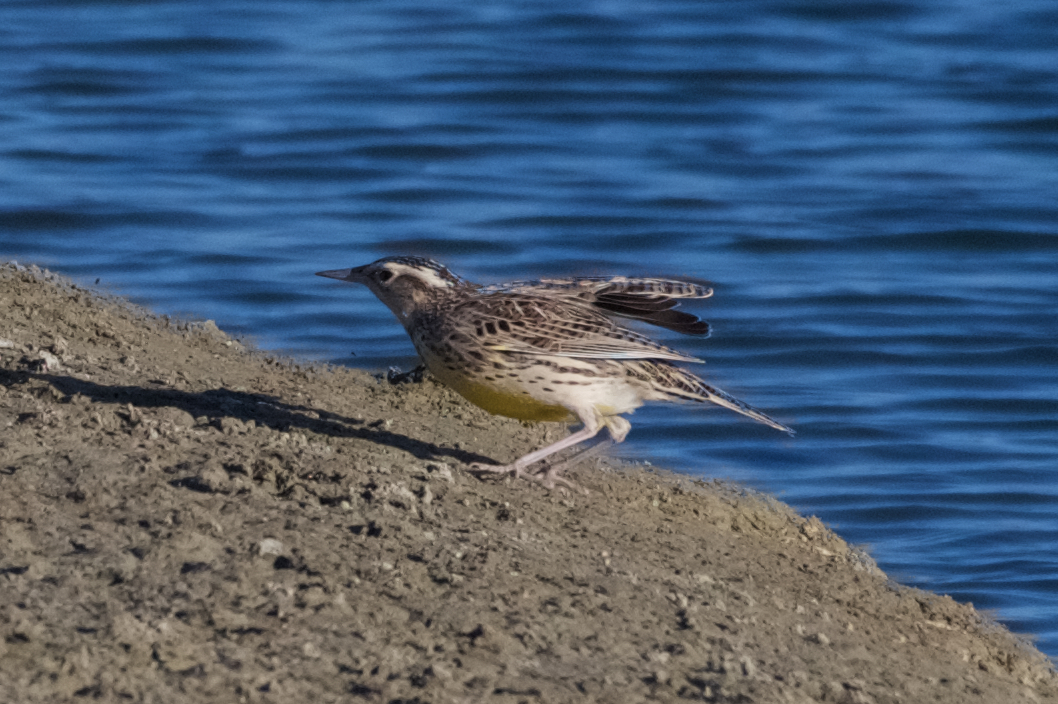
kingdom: Animalia
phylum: Chordata
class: Aves
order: Passeriformes
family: Icteridae
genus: Sturnella
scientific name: Sturnella neglecta
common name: Western meadowlark
